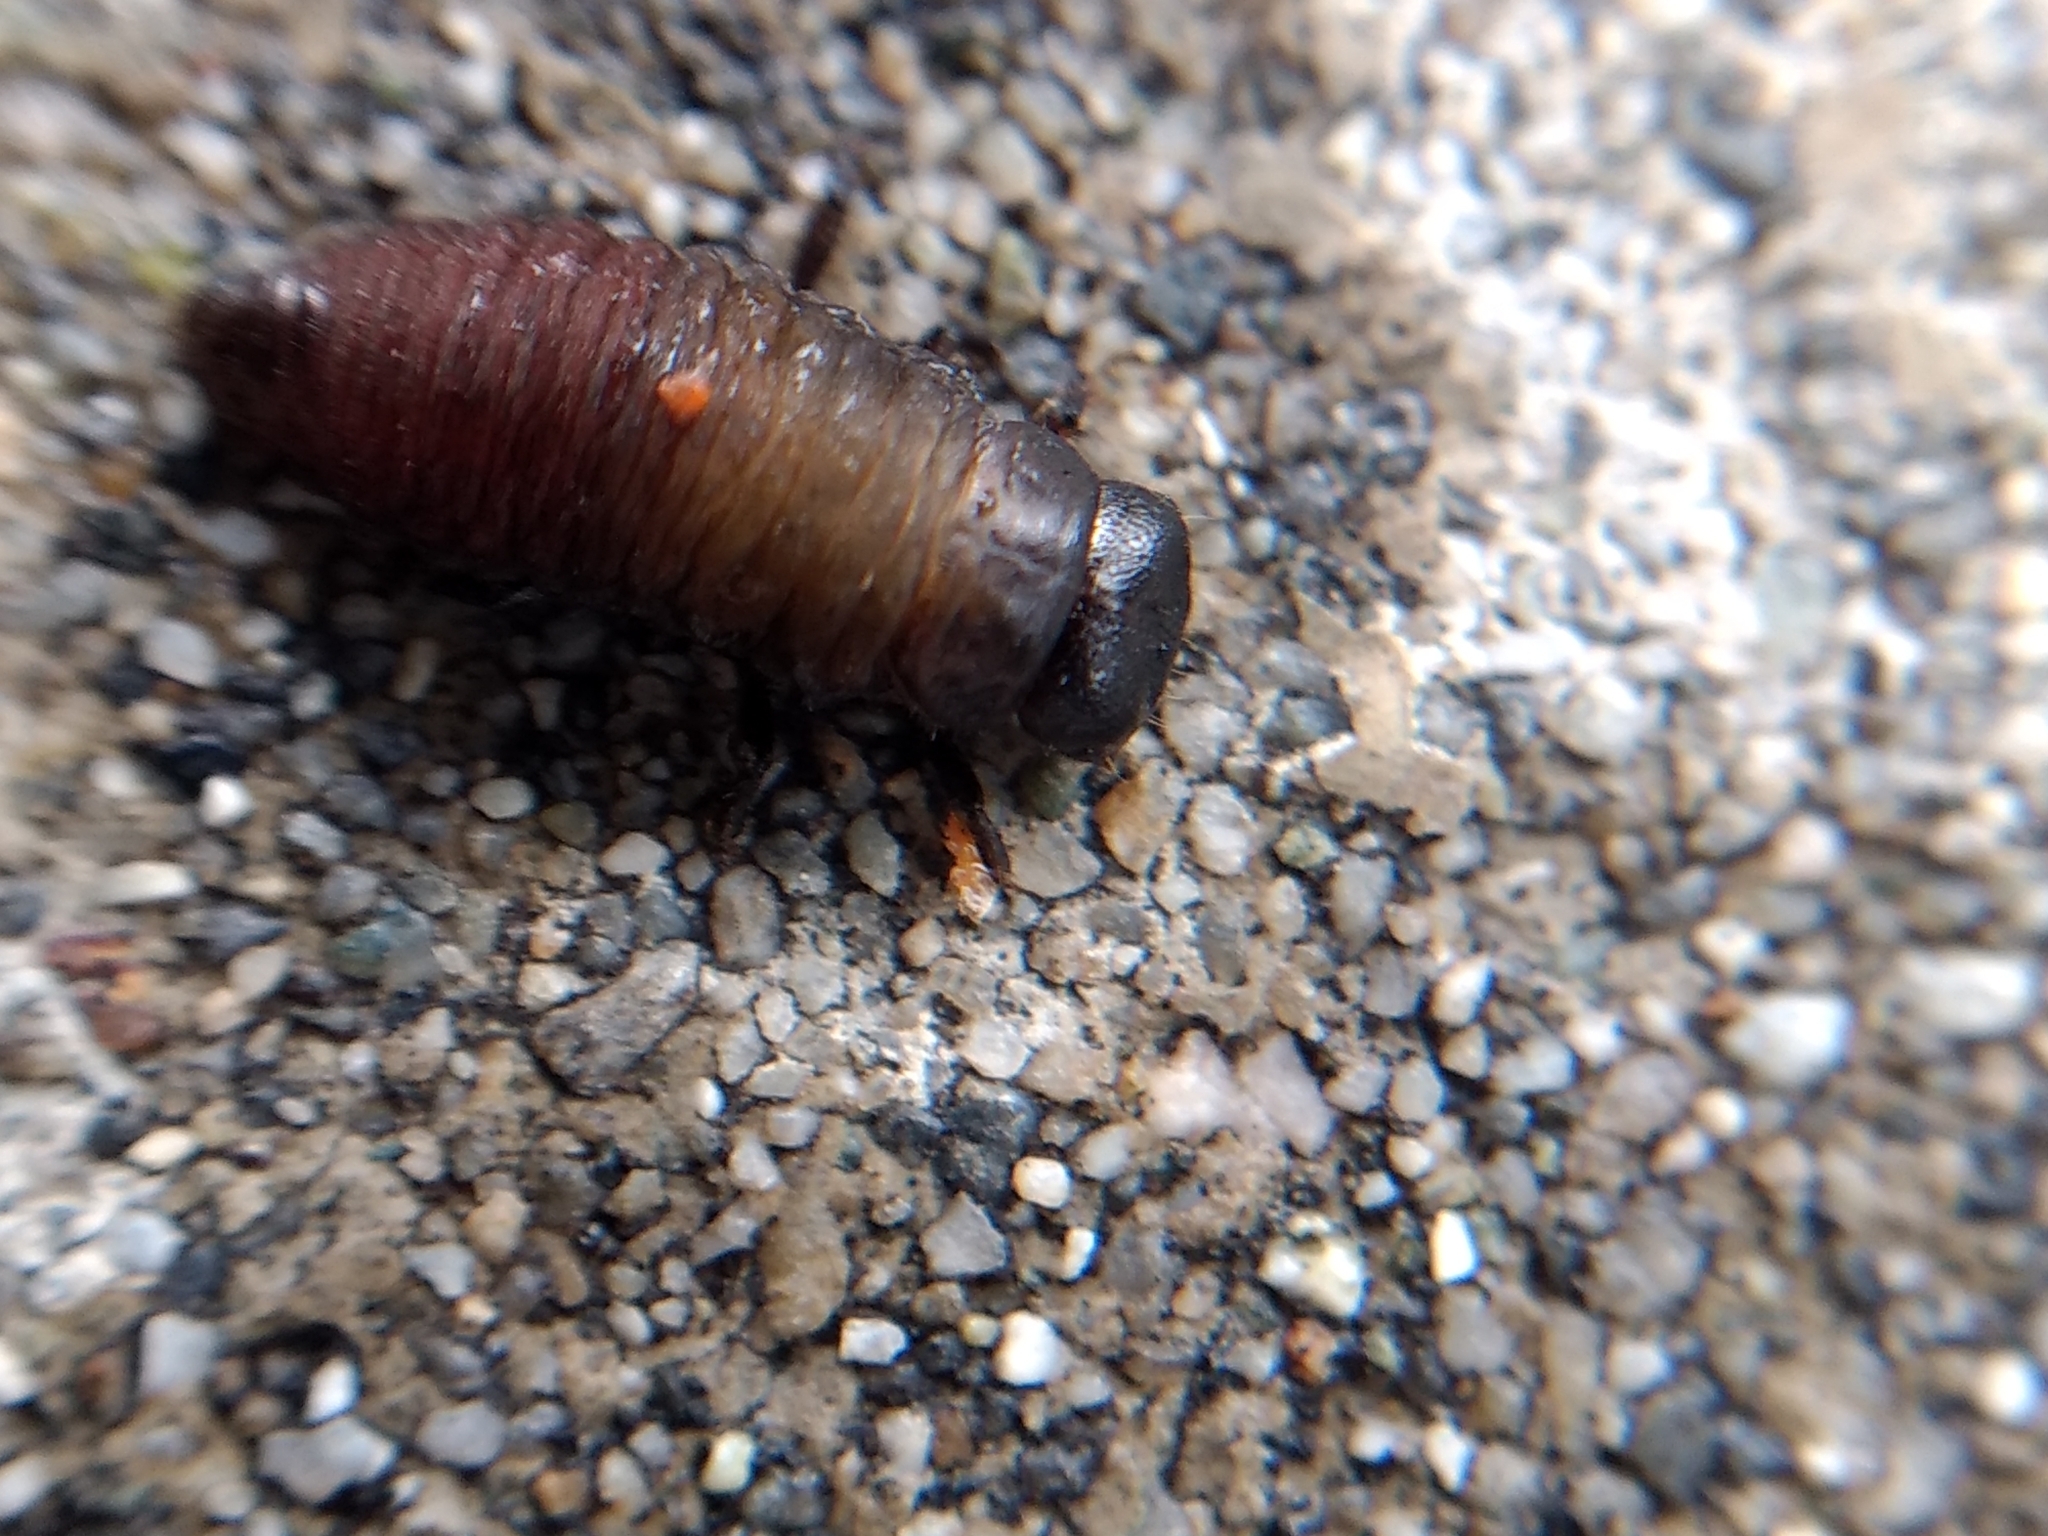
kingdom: Animalia
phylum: Arthropoda
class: Insecta
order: Coleoptera
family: Chrysomelidae
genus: Trachymela
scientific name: Trachymela sloanei
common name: Australian tortoise beetle
